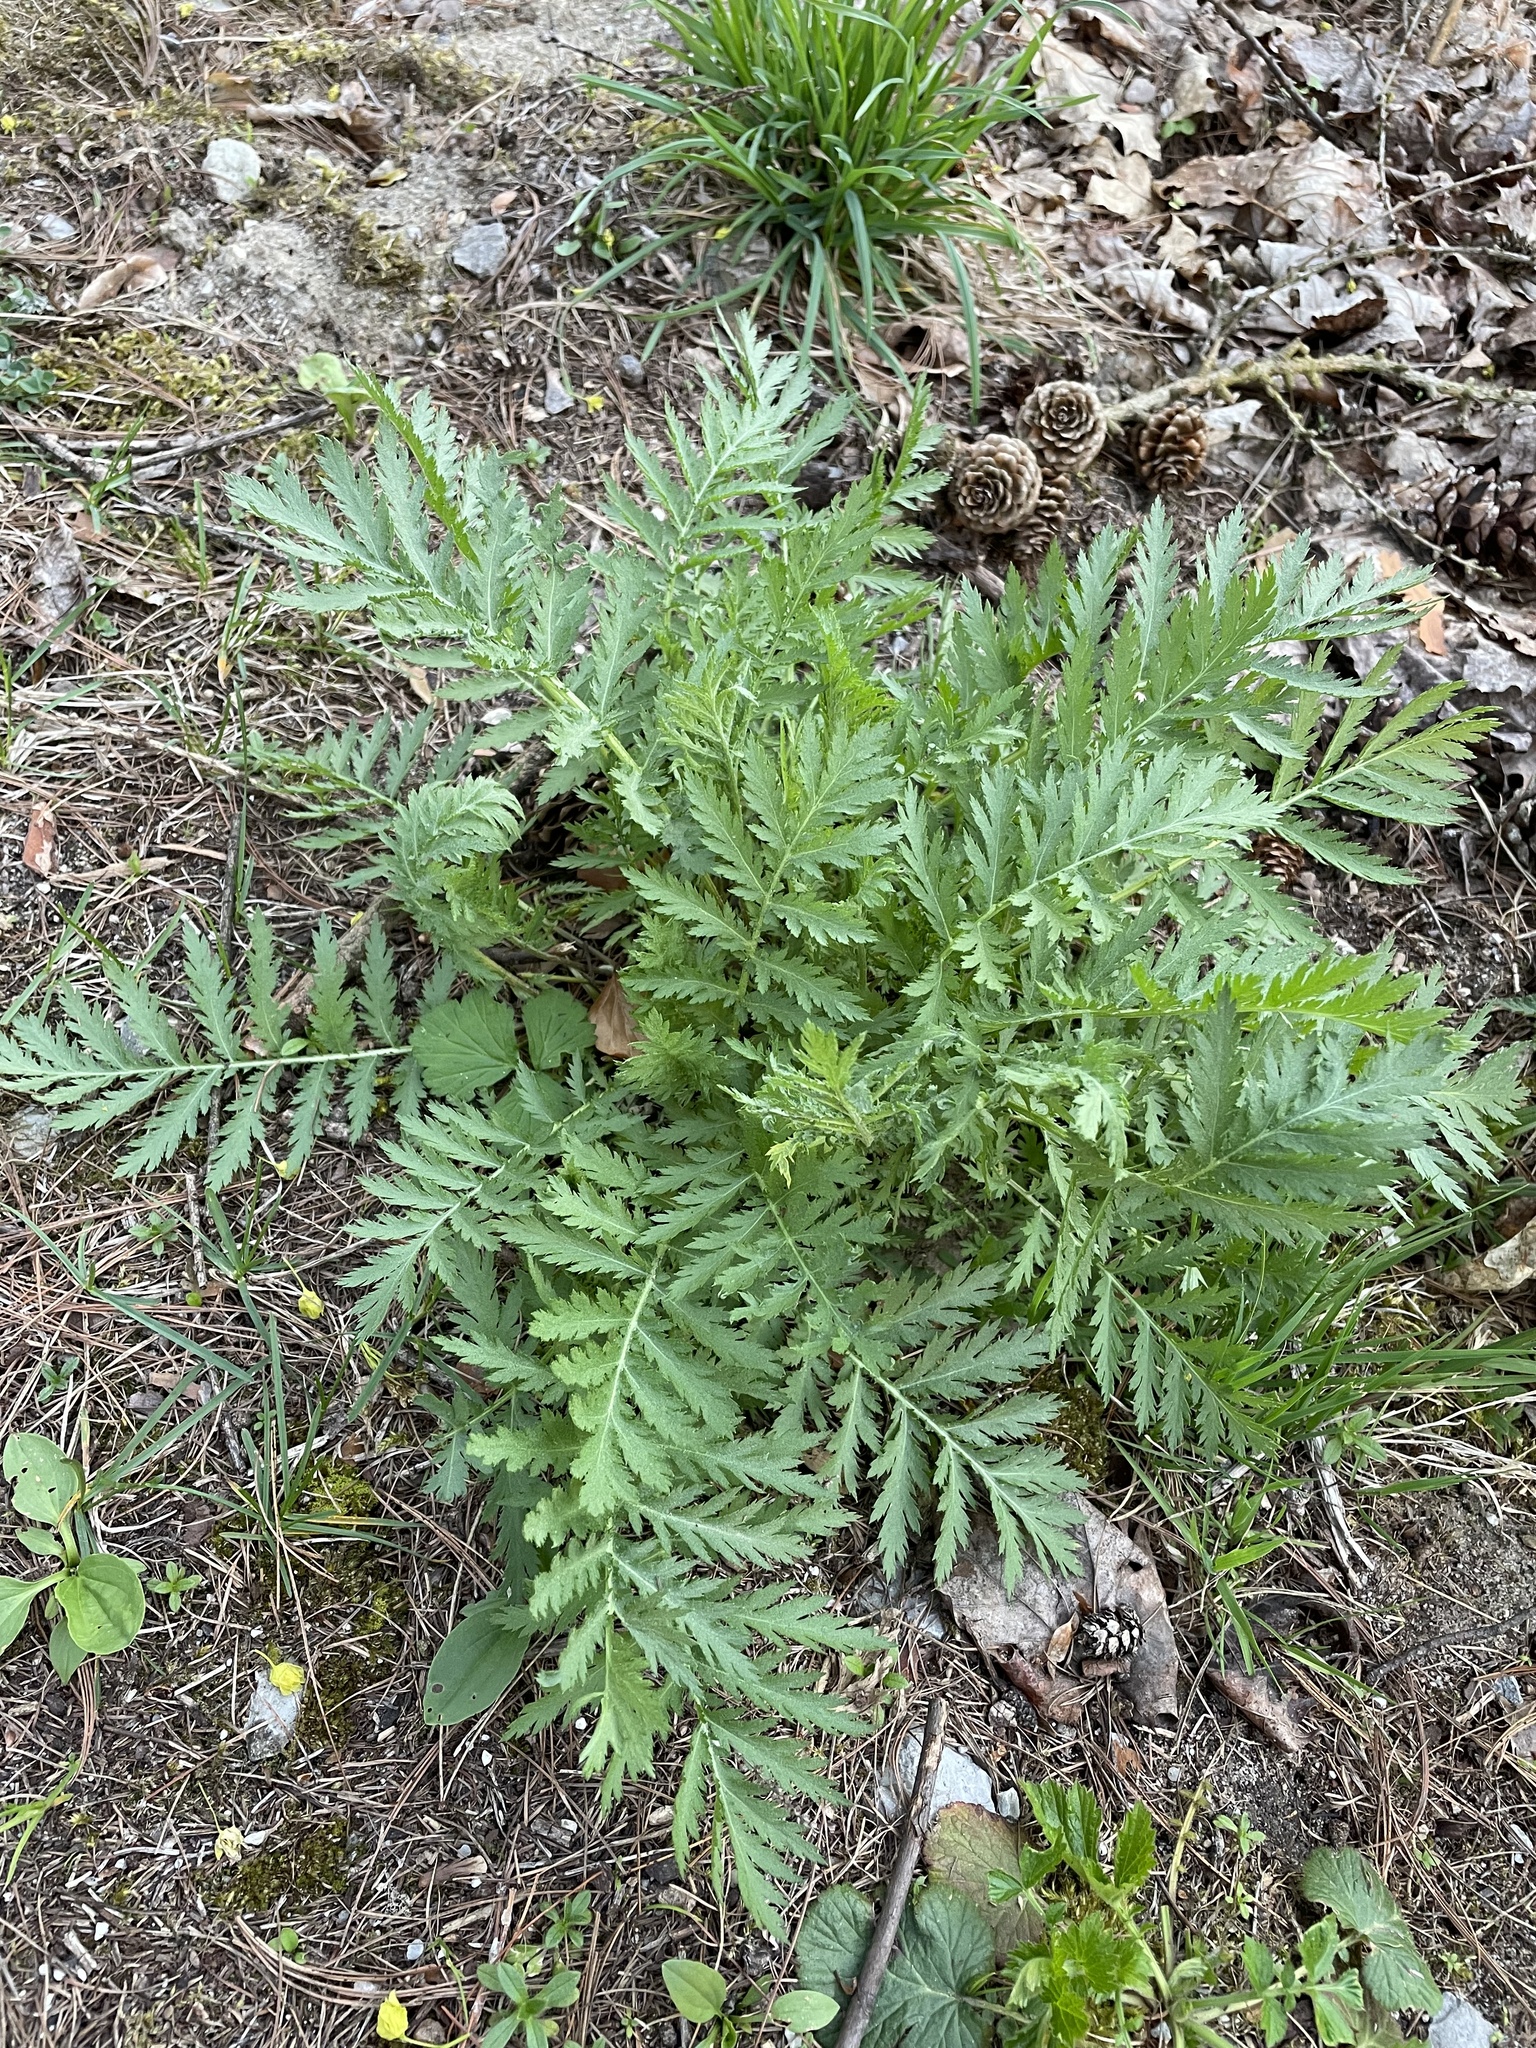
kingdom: Plantae
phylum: Tracheophyta
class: Magnoliopsida
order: Asterales
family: Asteraceae
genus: Tanacetum
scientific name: Tanacetum vulgare
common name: Common tansy
